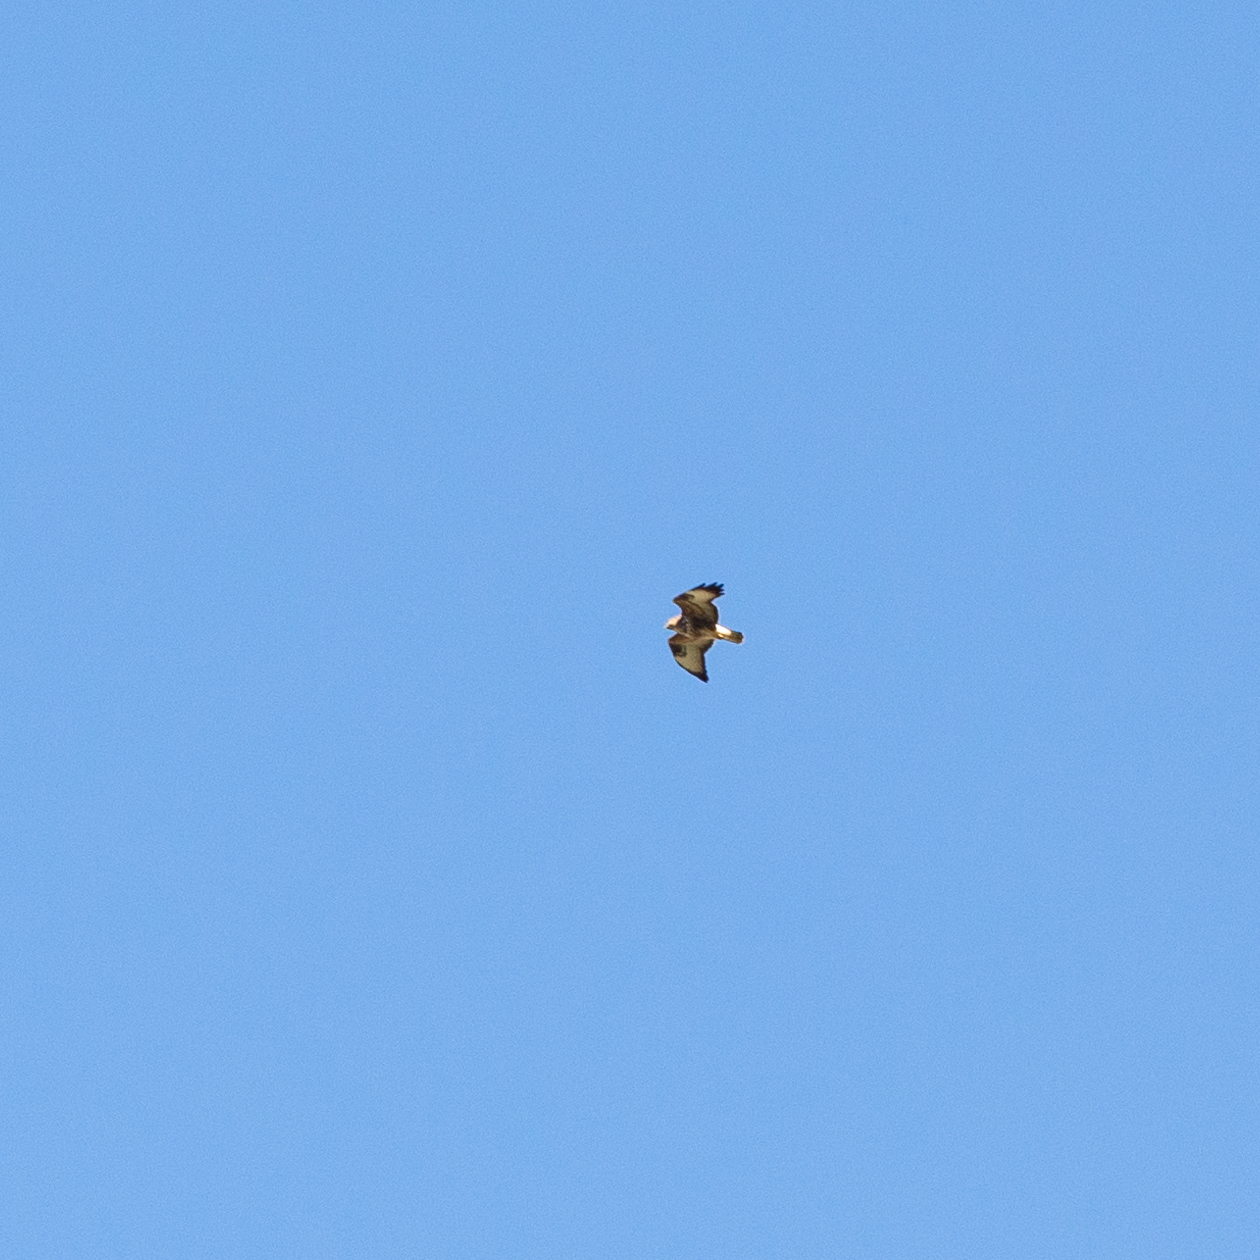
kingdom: Animalia
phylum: Chordata
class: Aves
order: Accipitriformes
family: Accipitridae
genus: Buteo
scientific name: Buteo buteo
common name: Common buzzard
